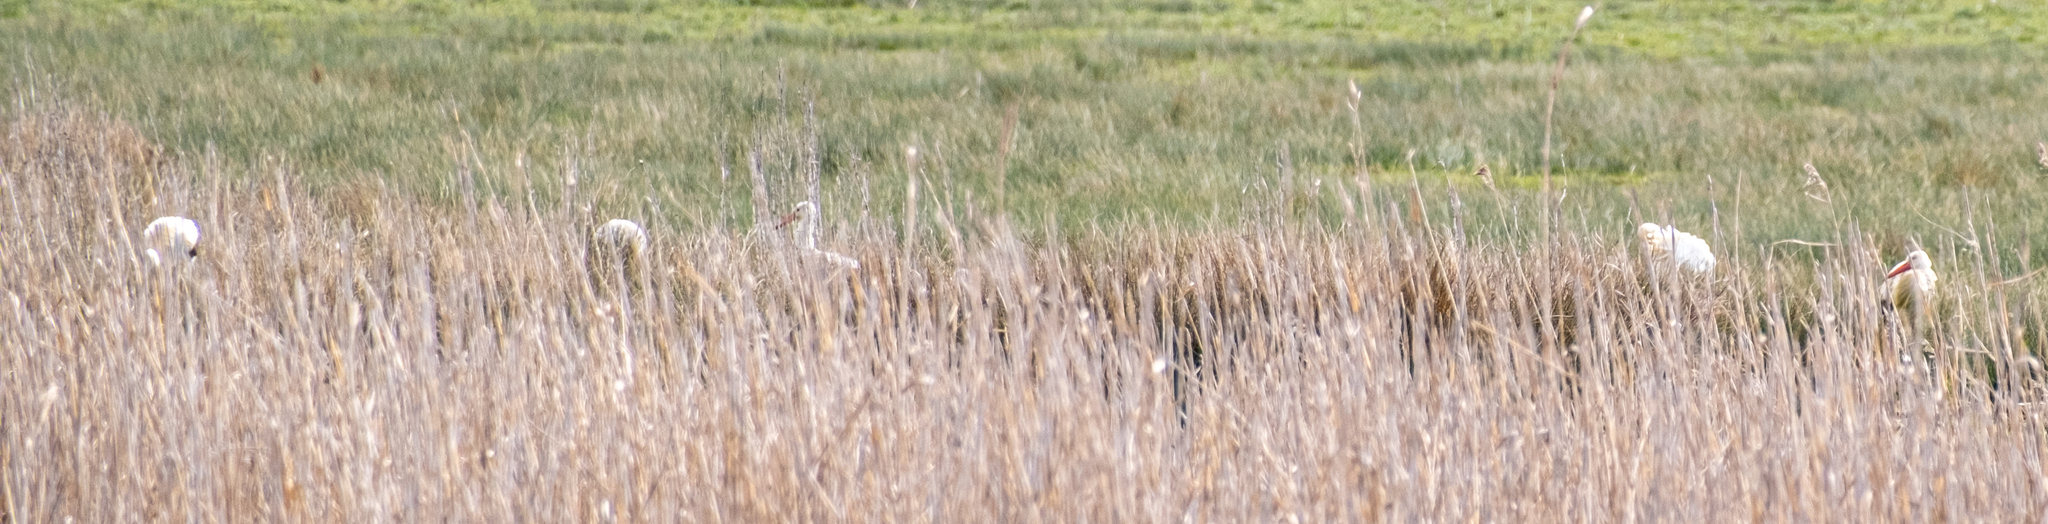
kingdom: Animalia
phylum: Chordata
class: Aves
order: Ciconiiformes
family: Ciconiidae
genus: Ciconia
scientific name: Ciconia ciconia
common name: White stork
